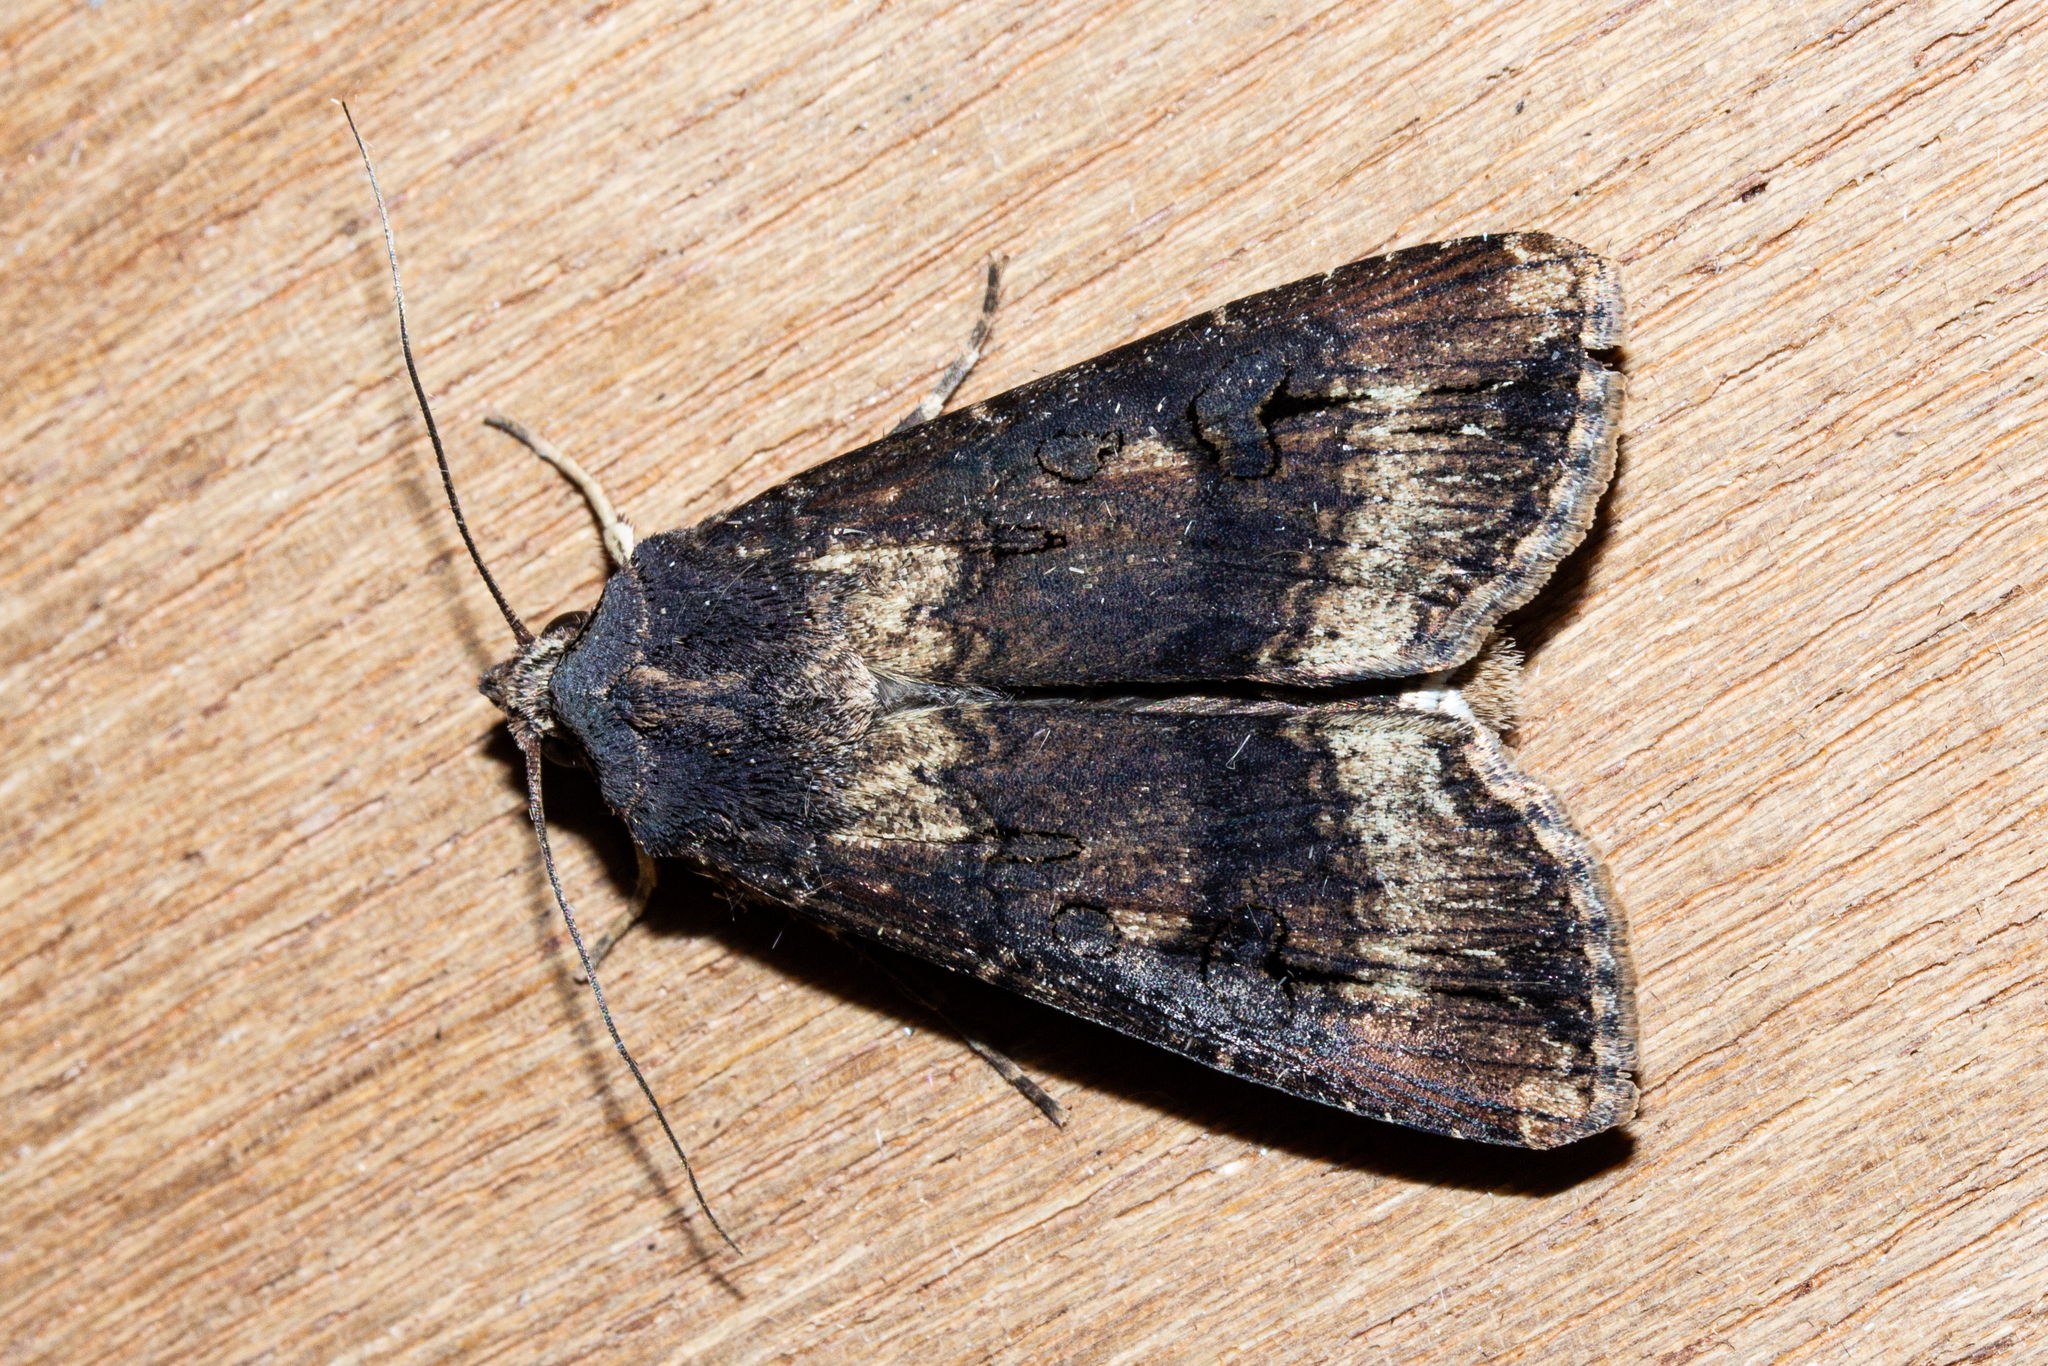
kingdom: Animalia
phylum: Arthropoda
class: Insecta
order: Lepidoptera
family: Noctuidae
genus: Agrotis
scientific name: Agrotis ipsilon
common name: Dark sword-grass
